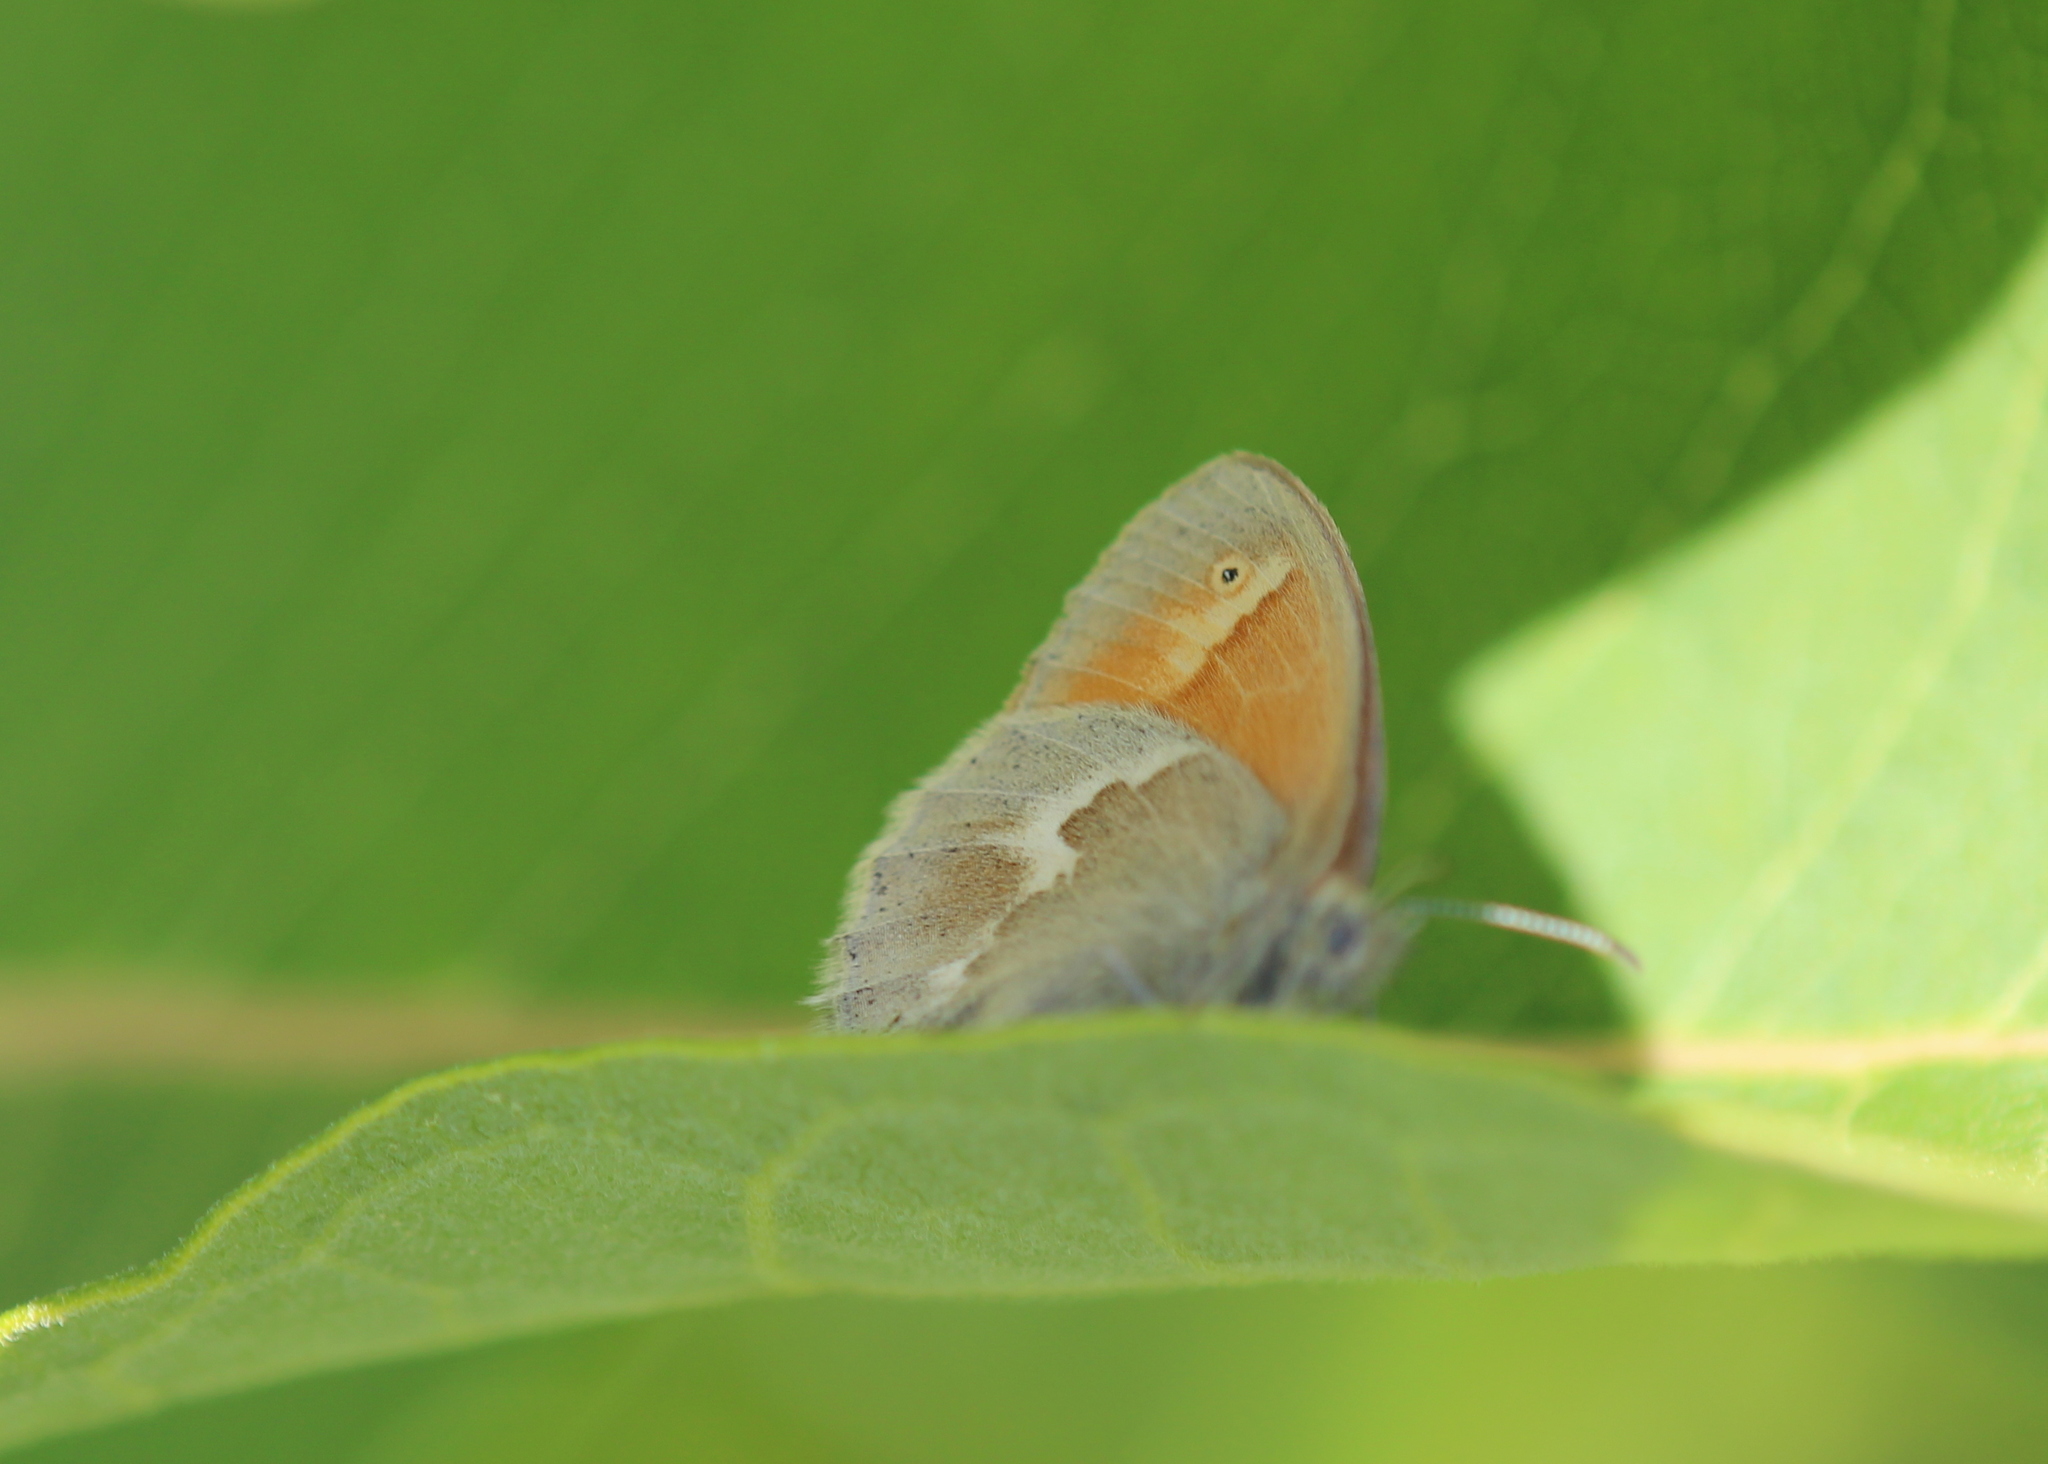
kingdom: Animalia
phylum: Arthropoda
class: Insecta
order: Lepidoptera
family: Nymphalidae
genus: Coenonympha
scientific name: Coenonympha california
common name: Common ringlet
